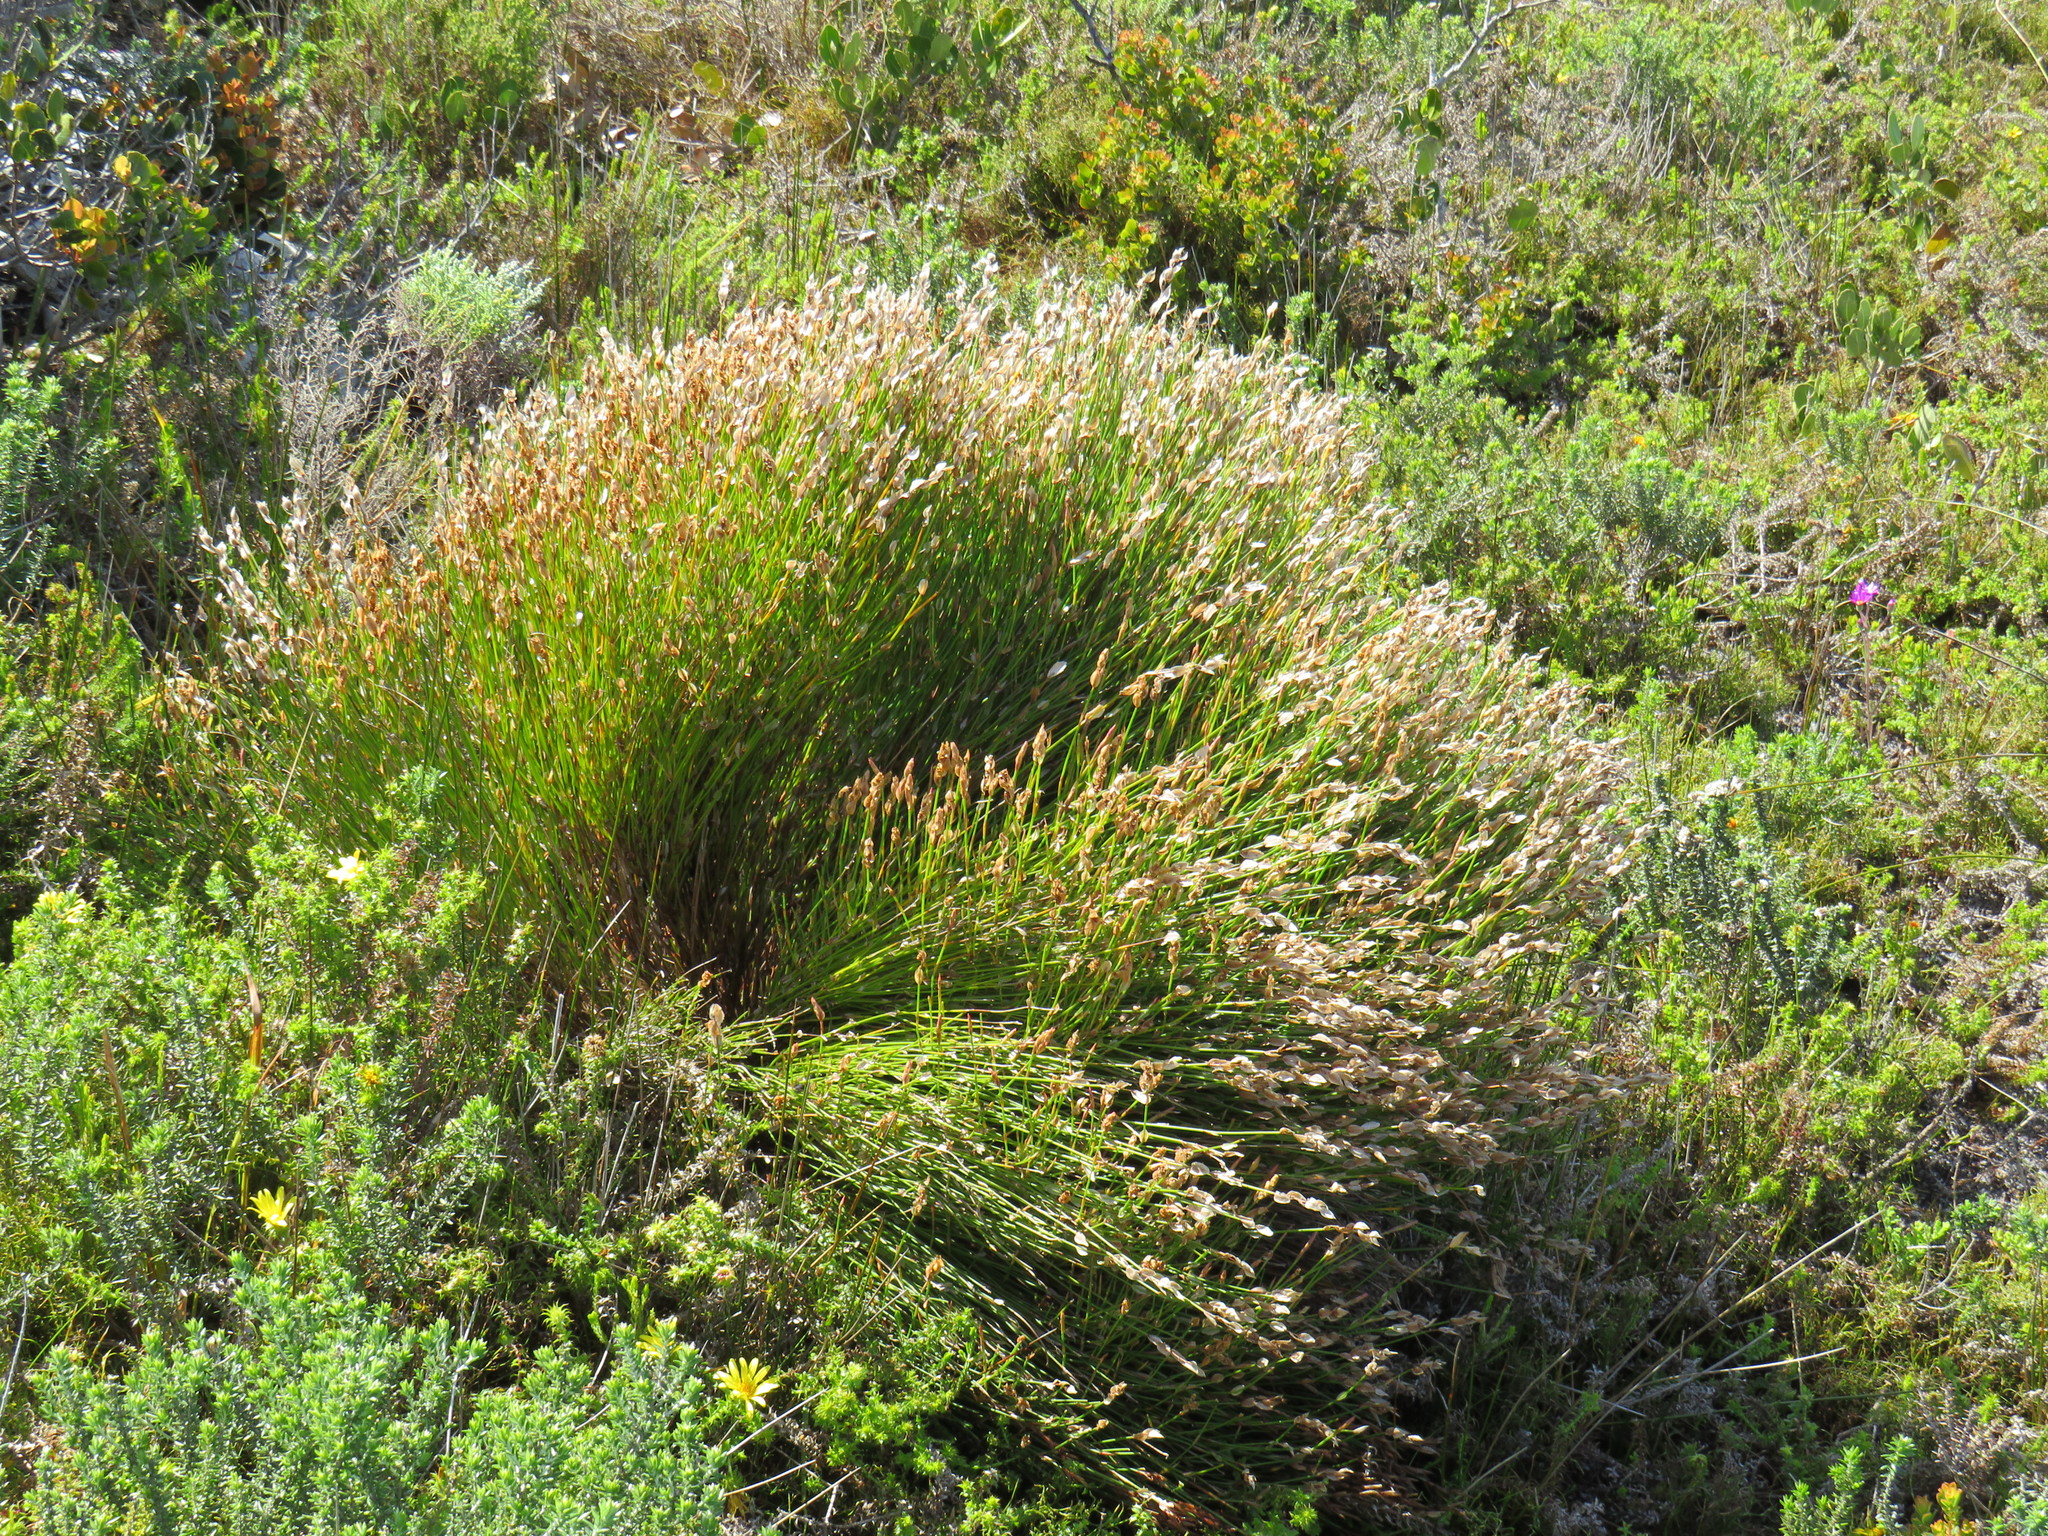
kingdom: Plantae
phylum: Tracheophyta
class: Liliopsida
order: Poales
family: Restionaceae
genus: Elegia
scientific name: Elegia stipularis
